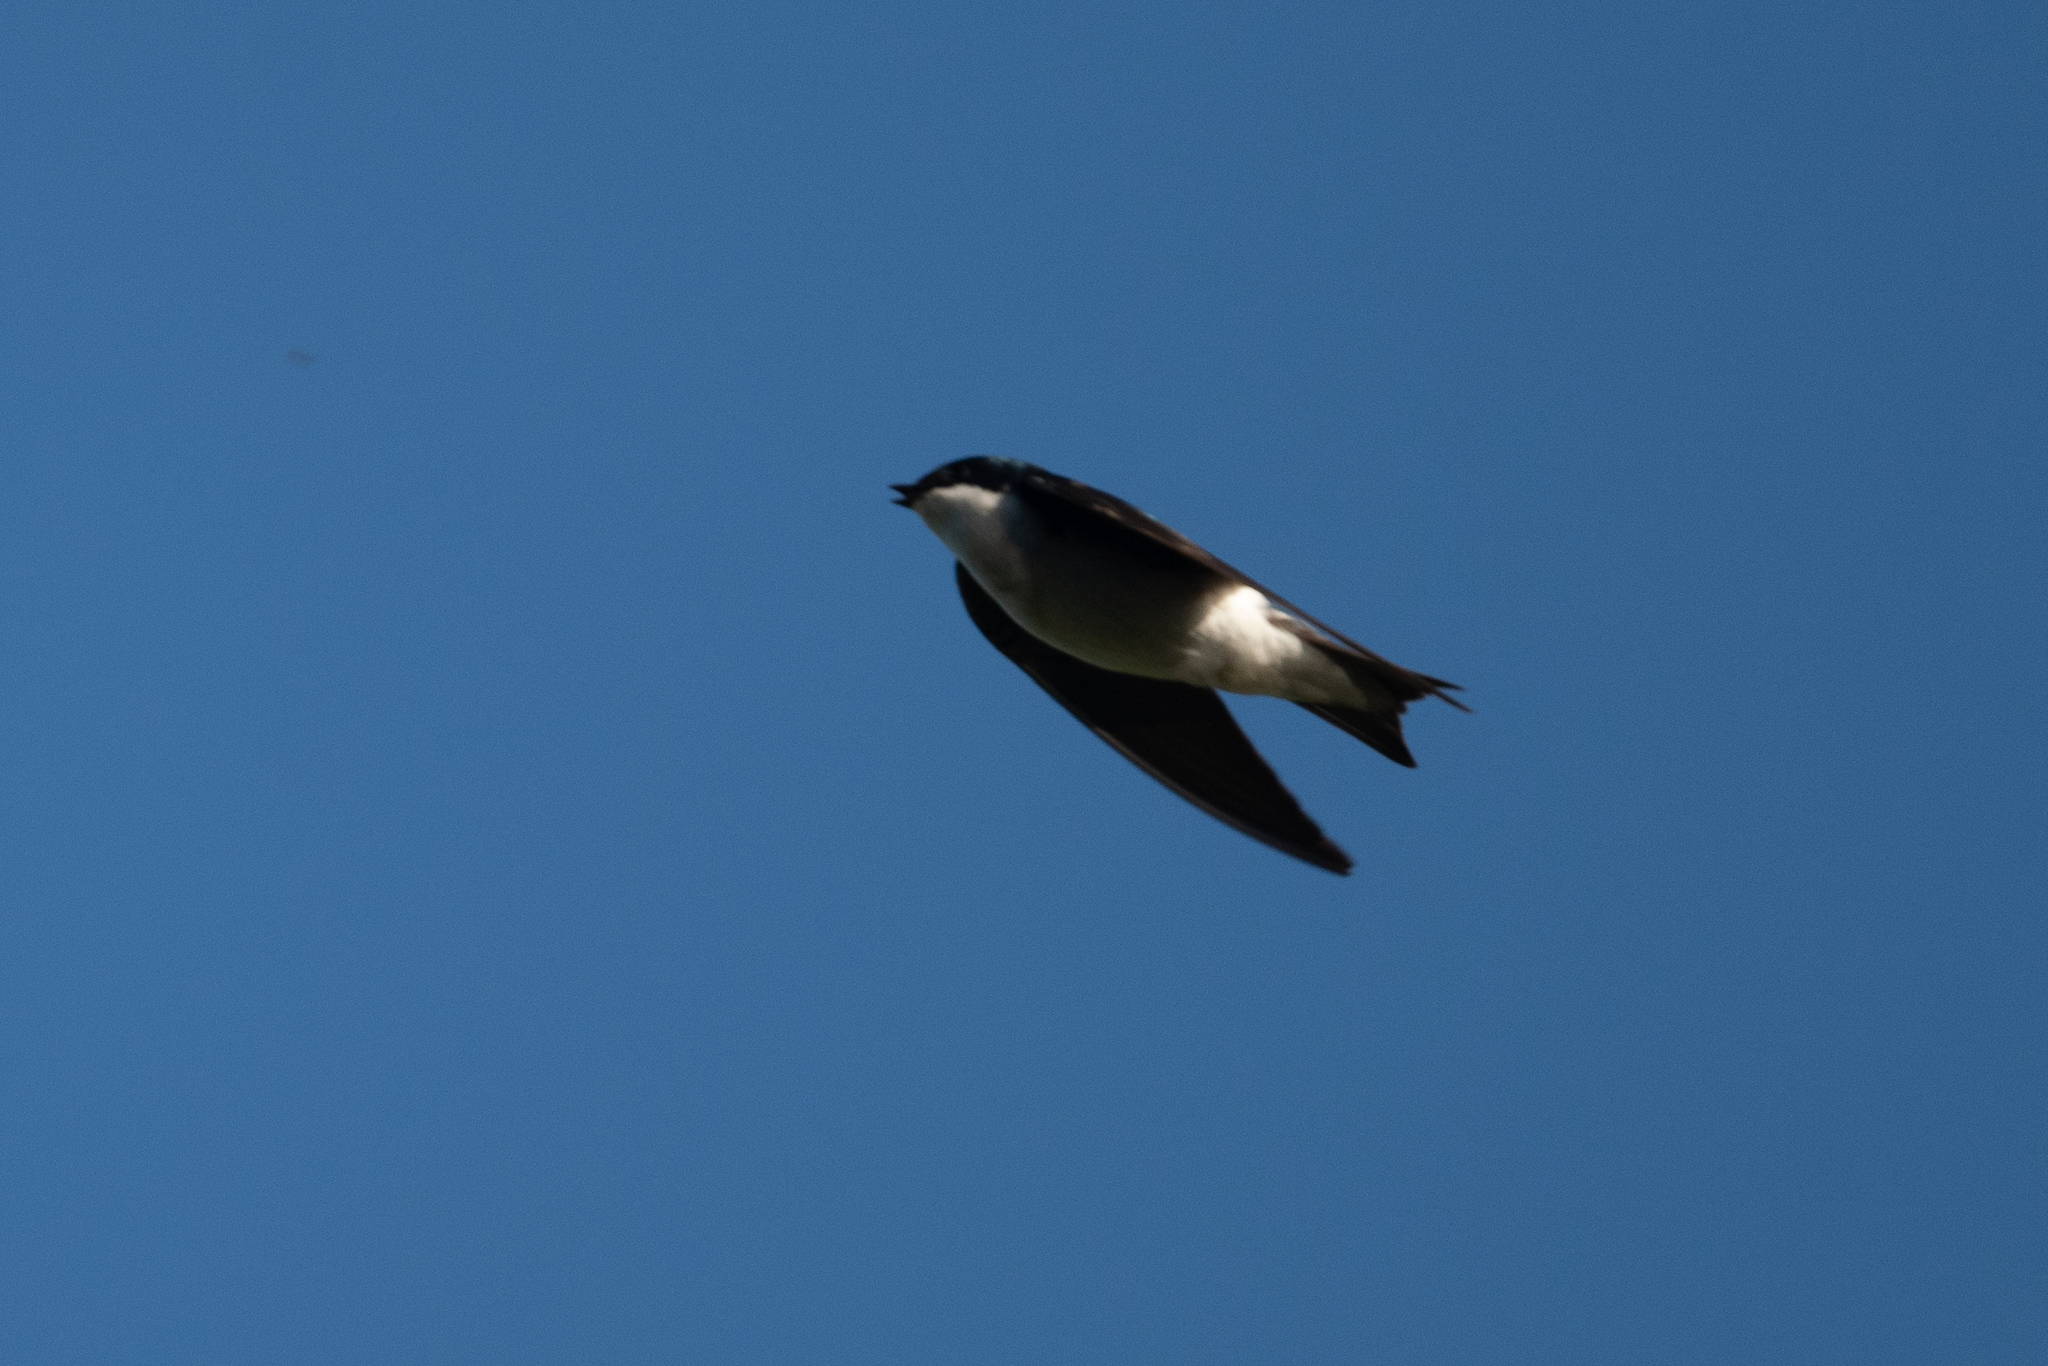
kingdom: Animalia
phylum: Chordata
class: Aves
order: Passeriformes
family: Hirundinidae
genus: Tachycineta
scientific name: Tachycineta bicolor
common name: Tree swallow
